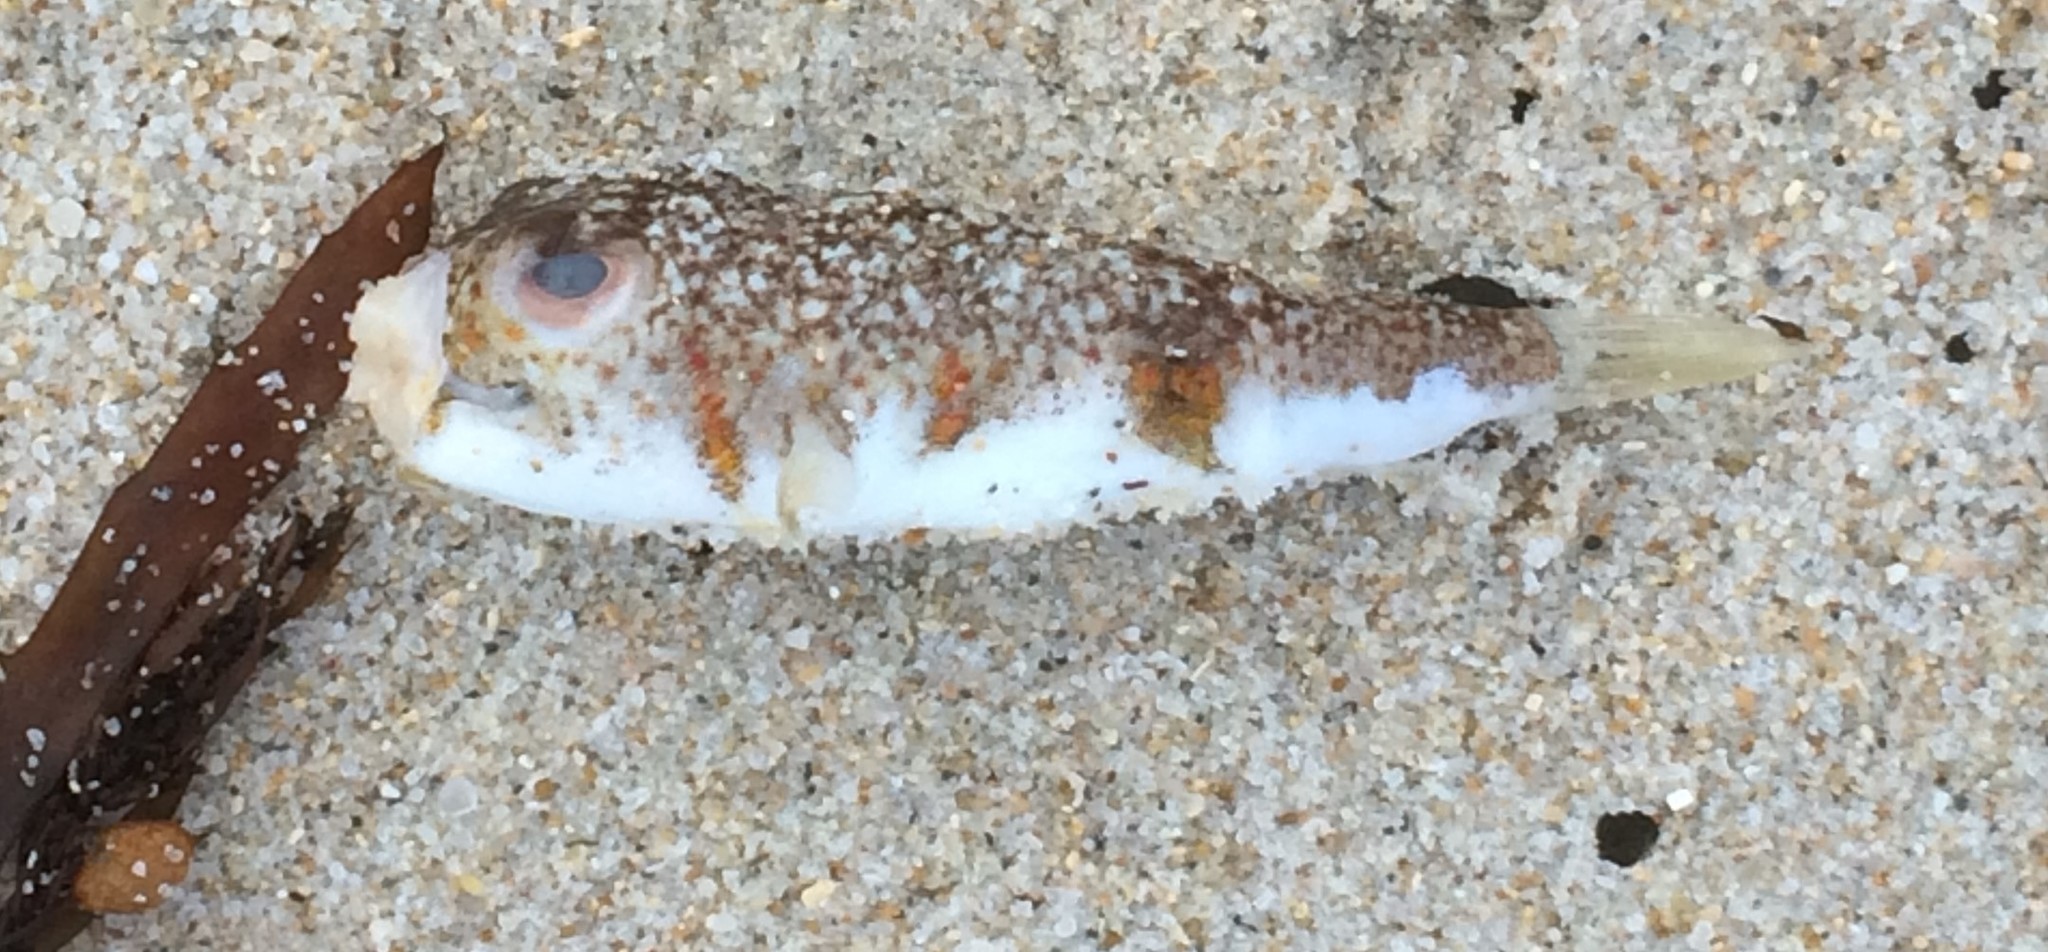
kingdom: Animalia
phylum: Chordata
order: Tetraodontiformes
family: Tetraodontidae
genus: Polyspina
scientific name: Polyspina piosae
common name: Orange-barred pufferfish
